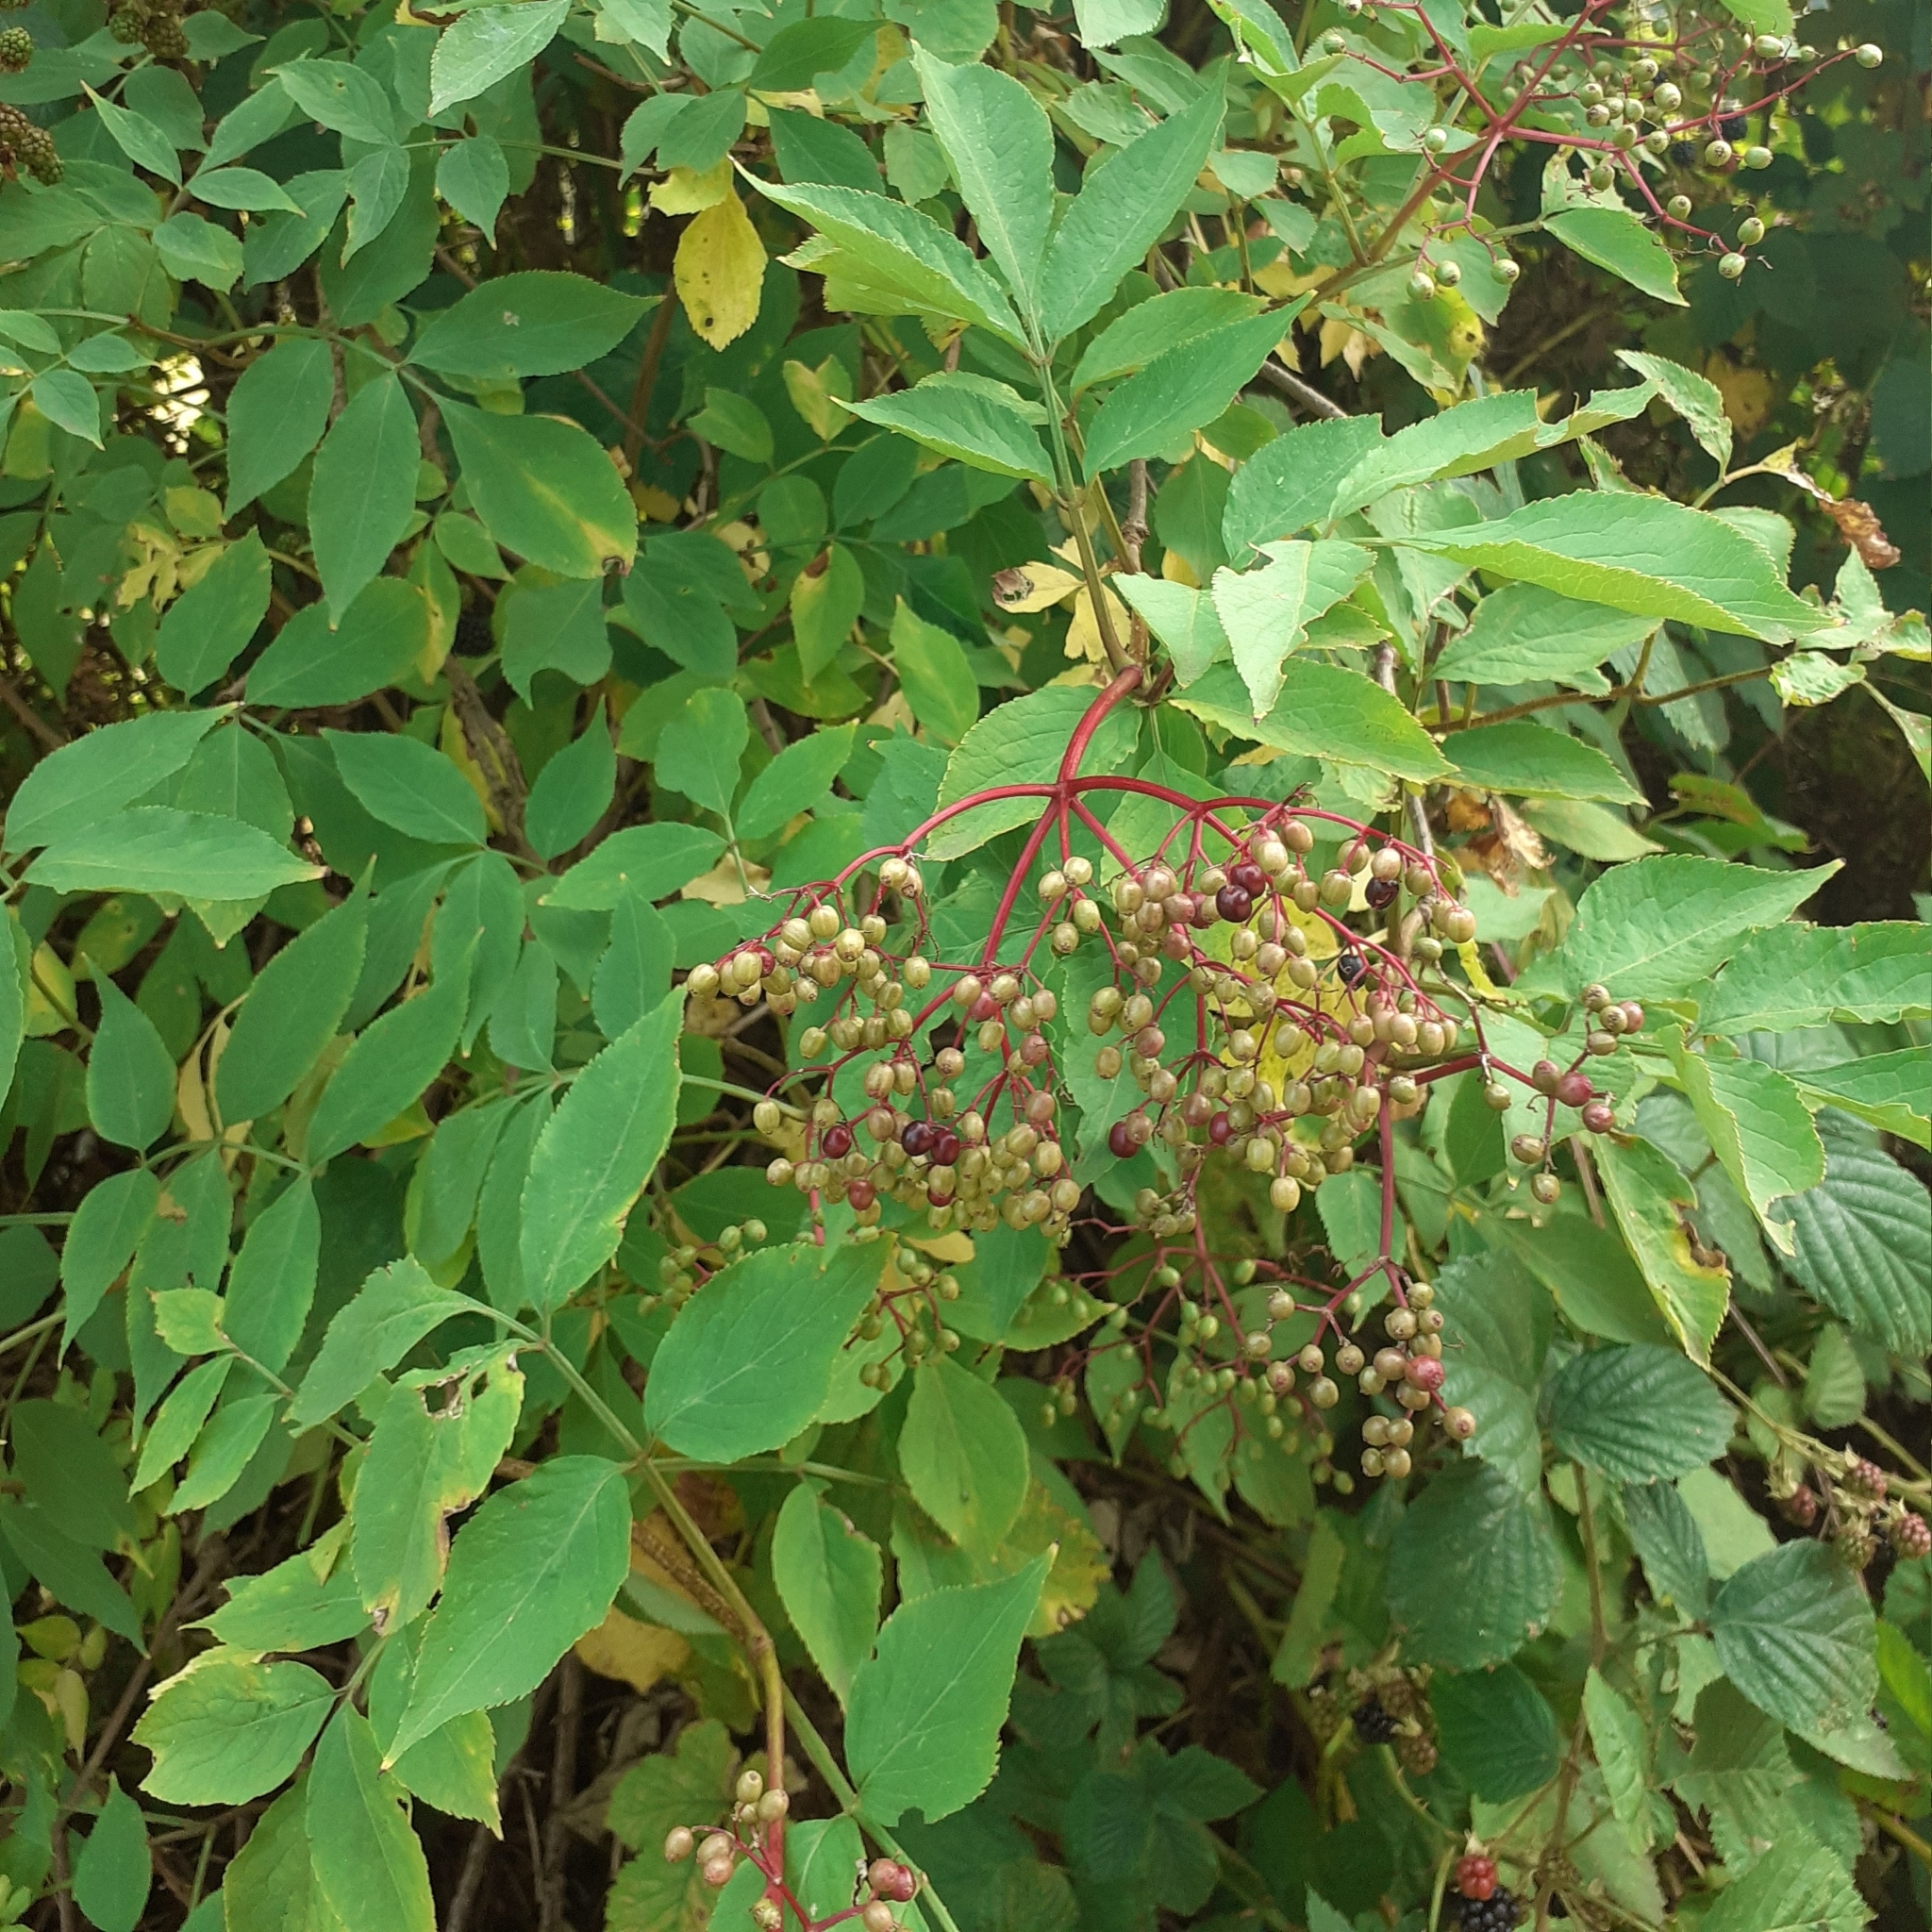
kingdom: Plantae
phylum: Tracheophyta
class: Magnoliopsida
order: Dipsacales
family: Viburnaceae
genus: Sambucus
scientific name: Sambucus nigra
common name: Elder
